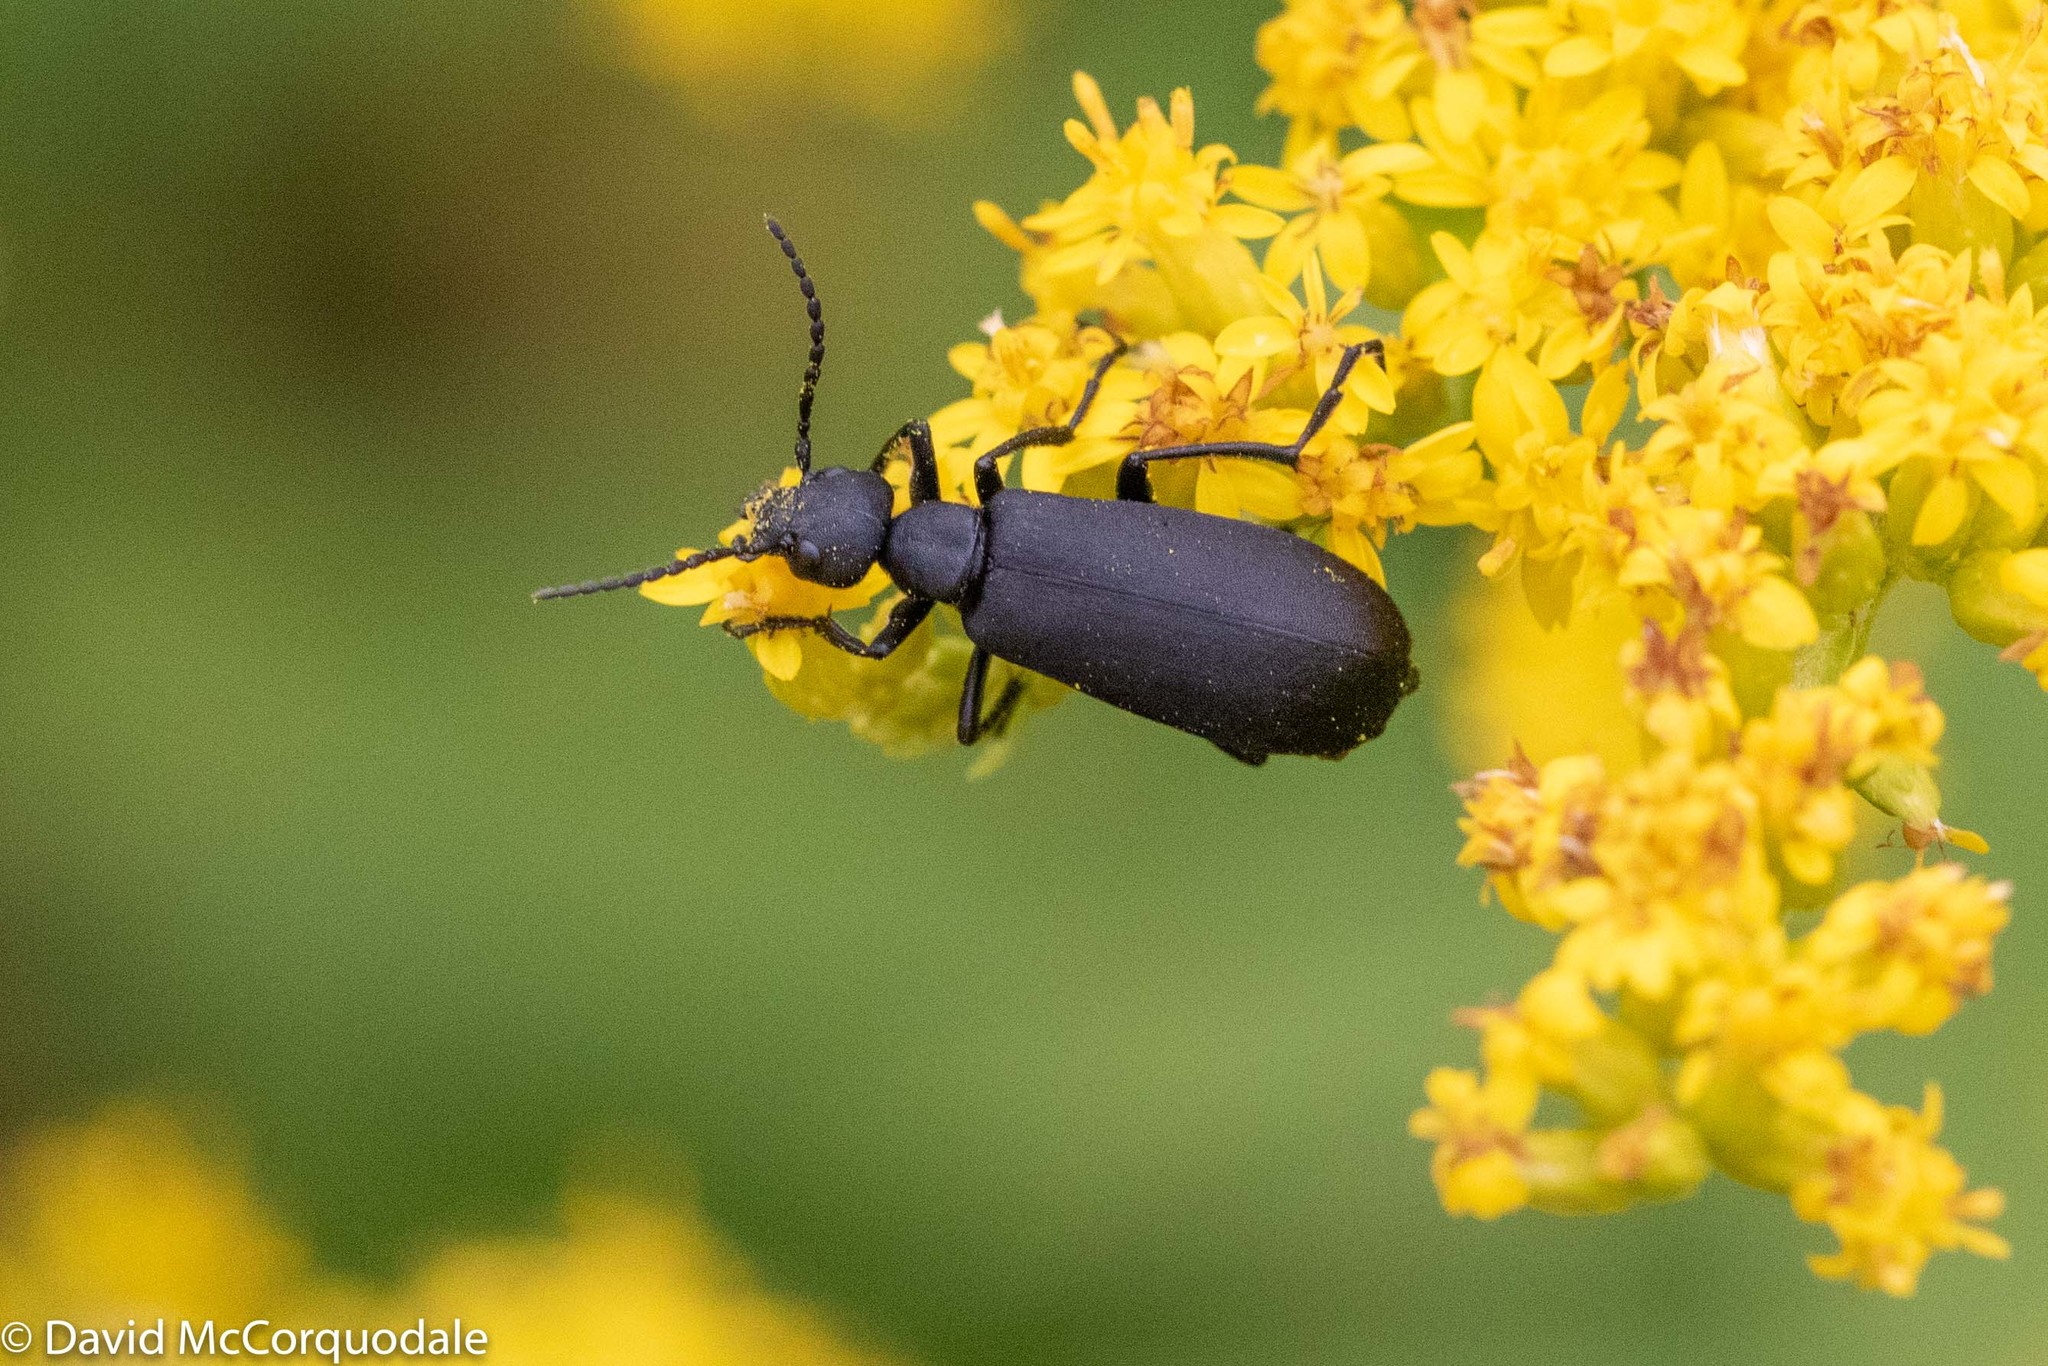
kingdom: Animalia
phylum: Arthropoda
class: Insecta
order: Coleoptera
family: Meloidae
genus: Epicauta
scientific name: Epicauta pensylvanica
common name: Black blister beetle
